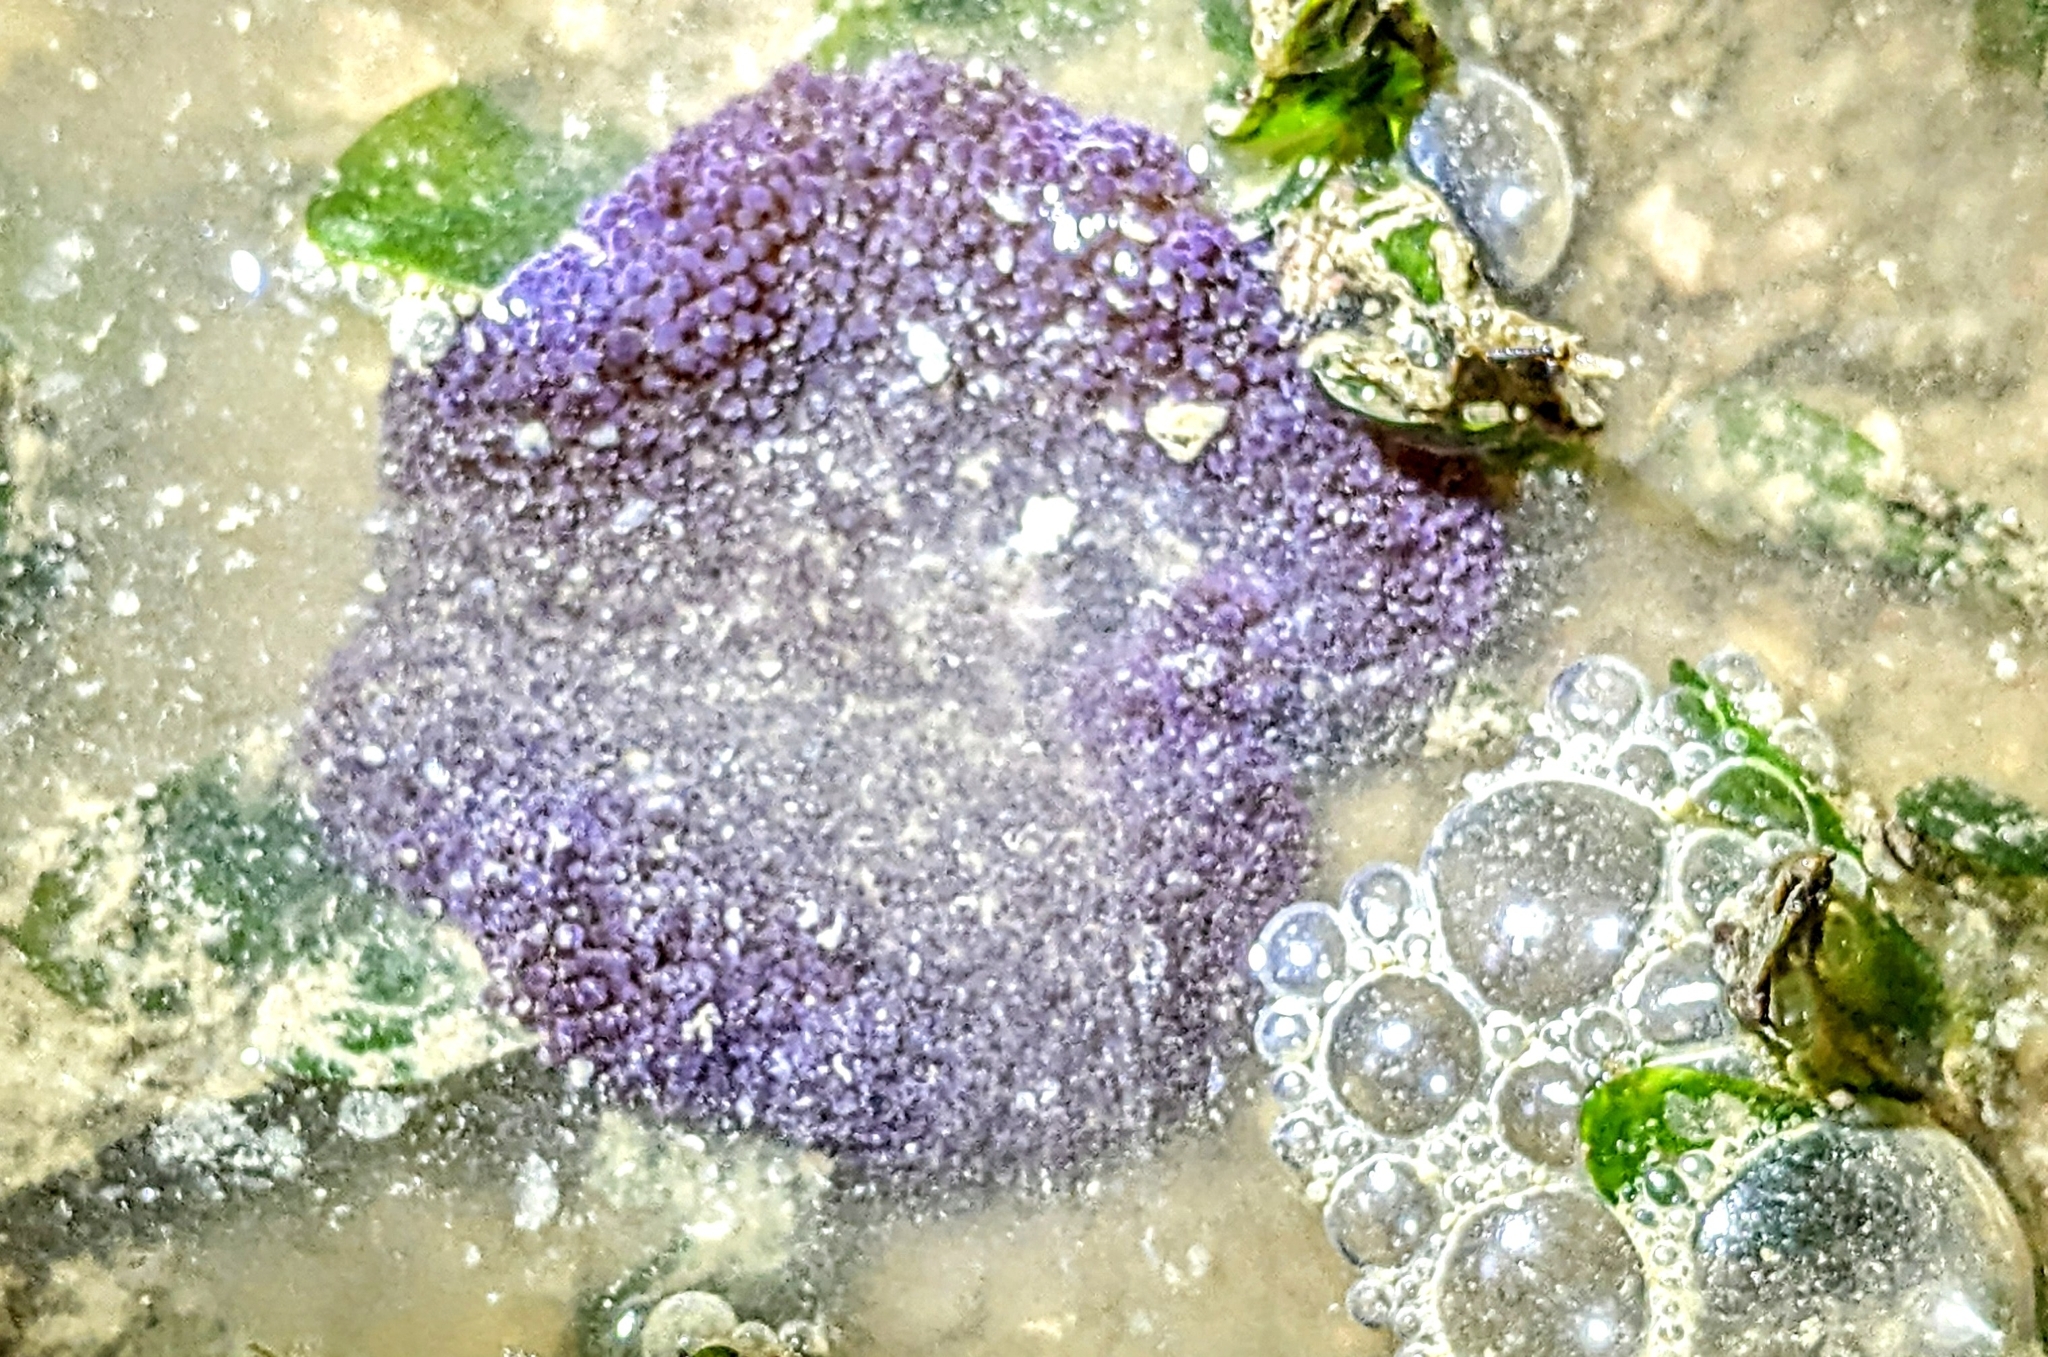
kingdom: Animalia
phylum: Cnidaria
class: Anthozoa
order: Actiniaria
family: Stichodactylidae
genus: Stichodactyla
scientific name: Stichodactyla haddoni
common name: Haddon's sea anemone
